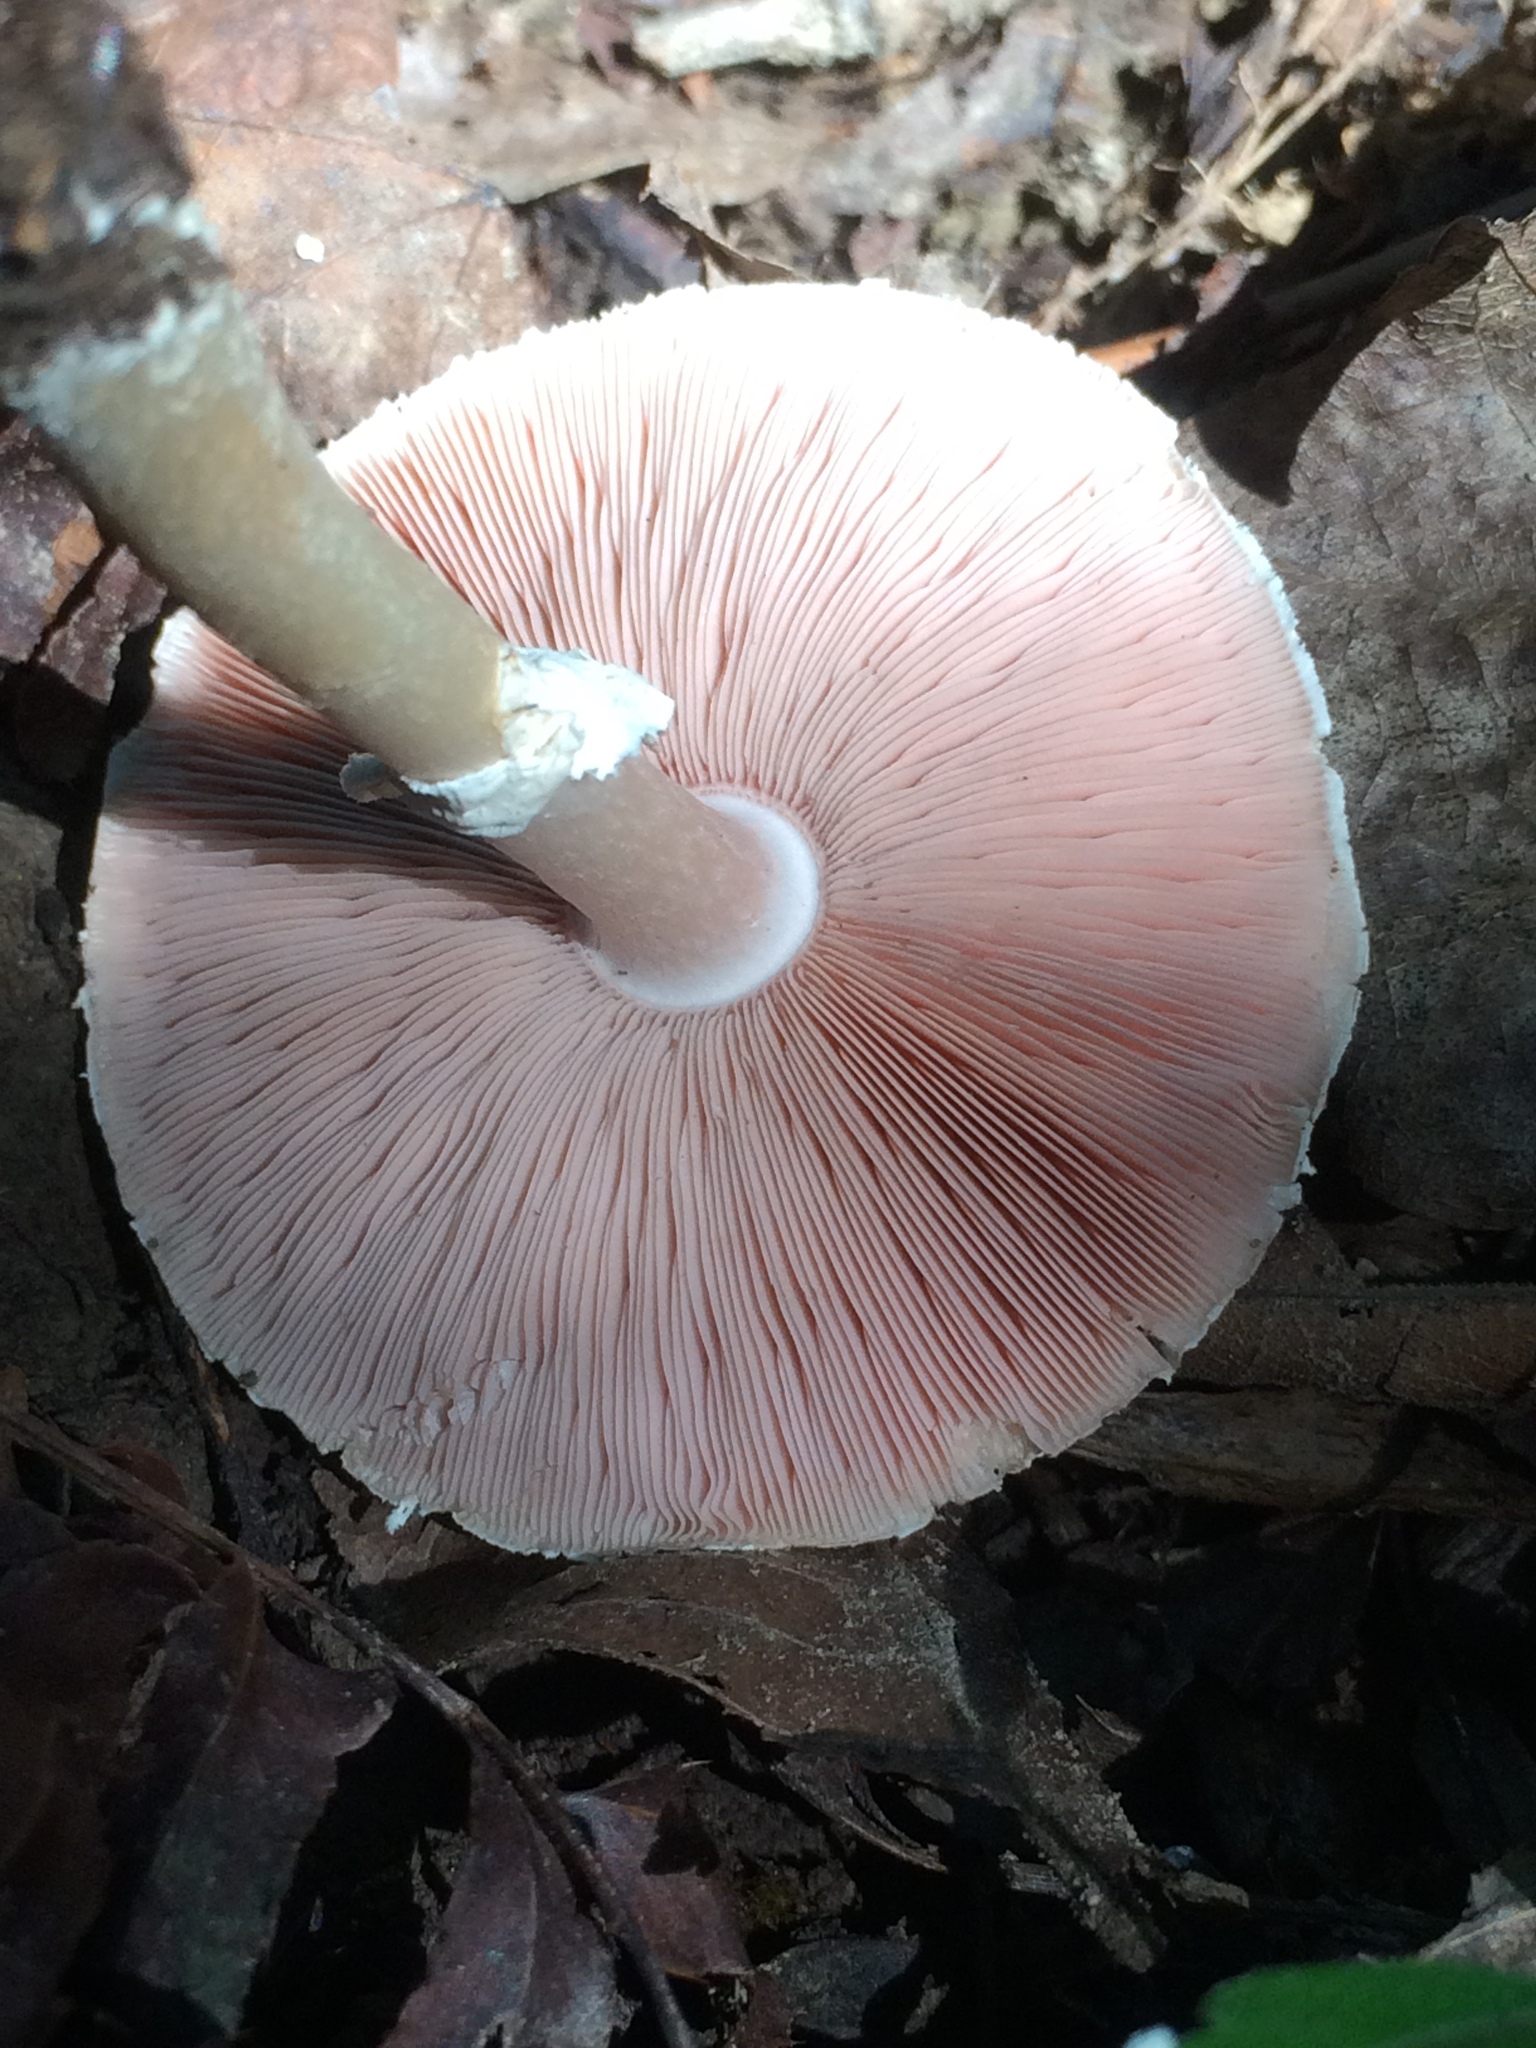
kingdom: Fungi
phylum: Basidiomycota
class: Agaricomycetes
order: Agaricales
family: Agaricaceae
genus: Agaricus
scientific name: Agaricus butyreburneus
